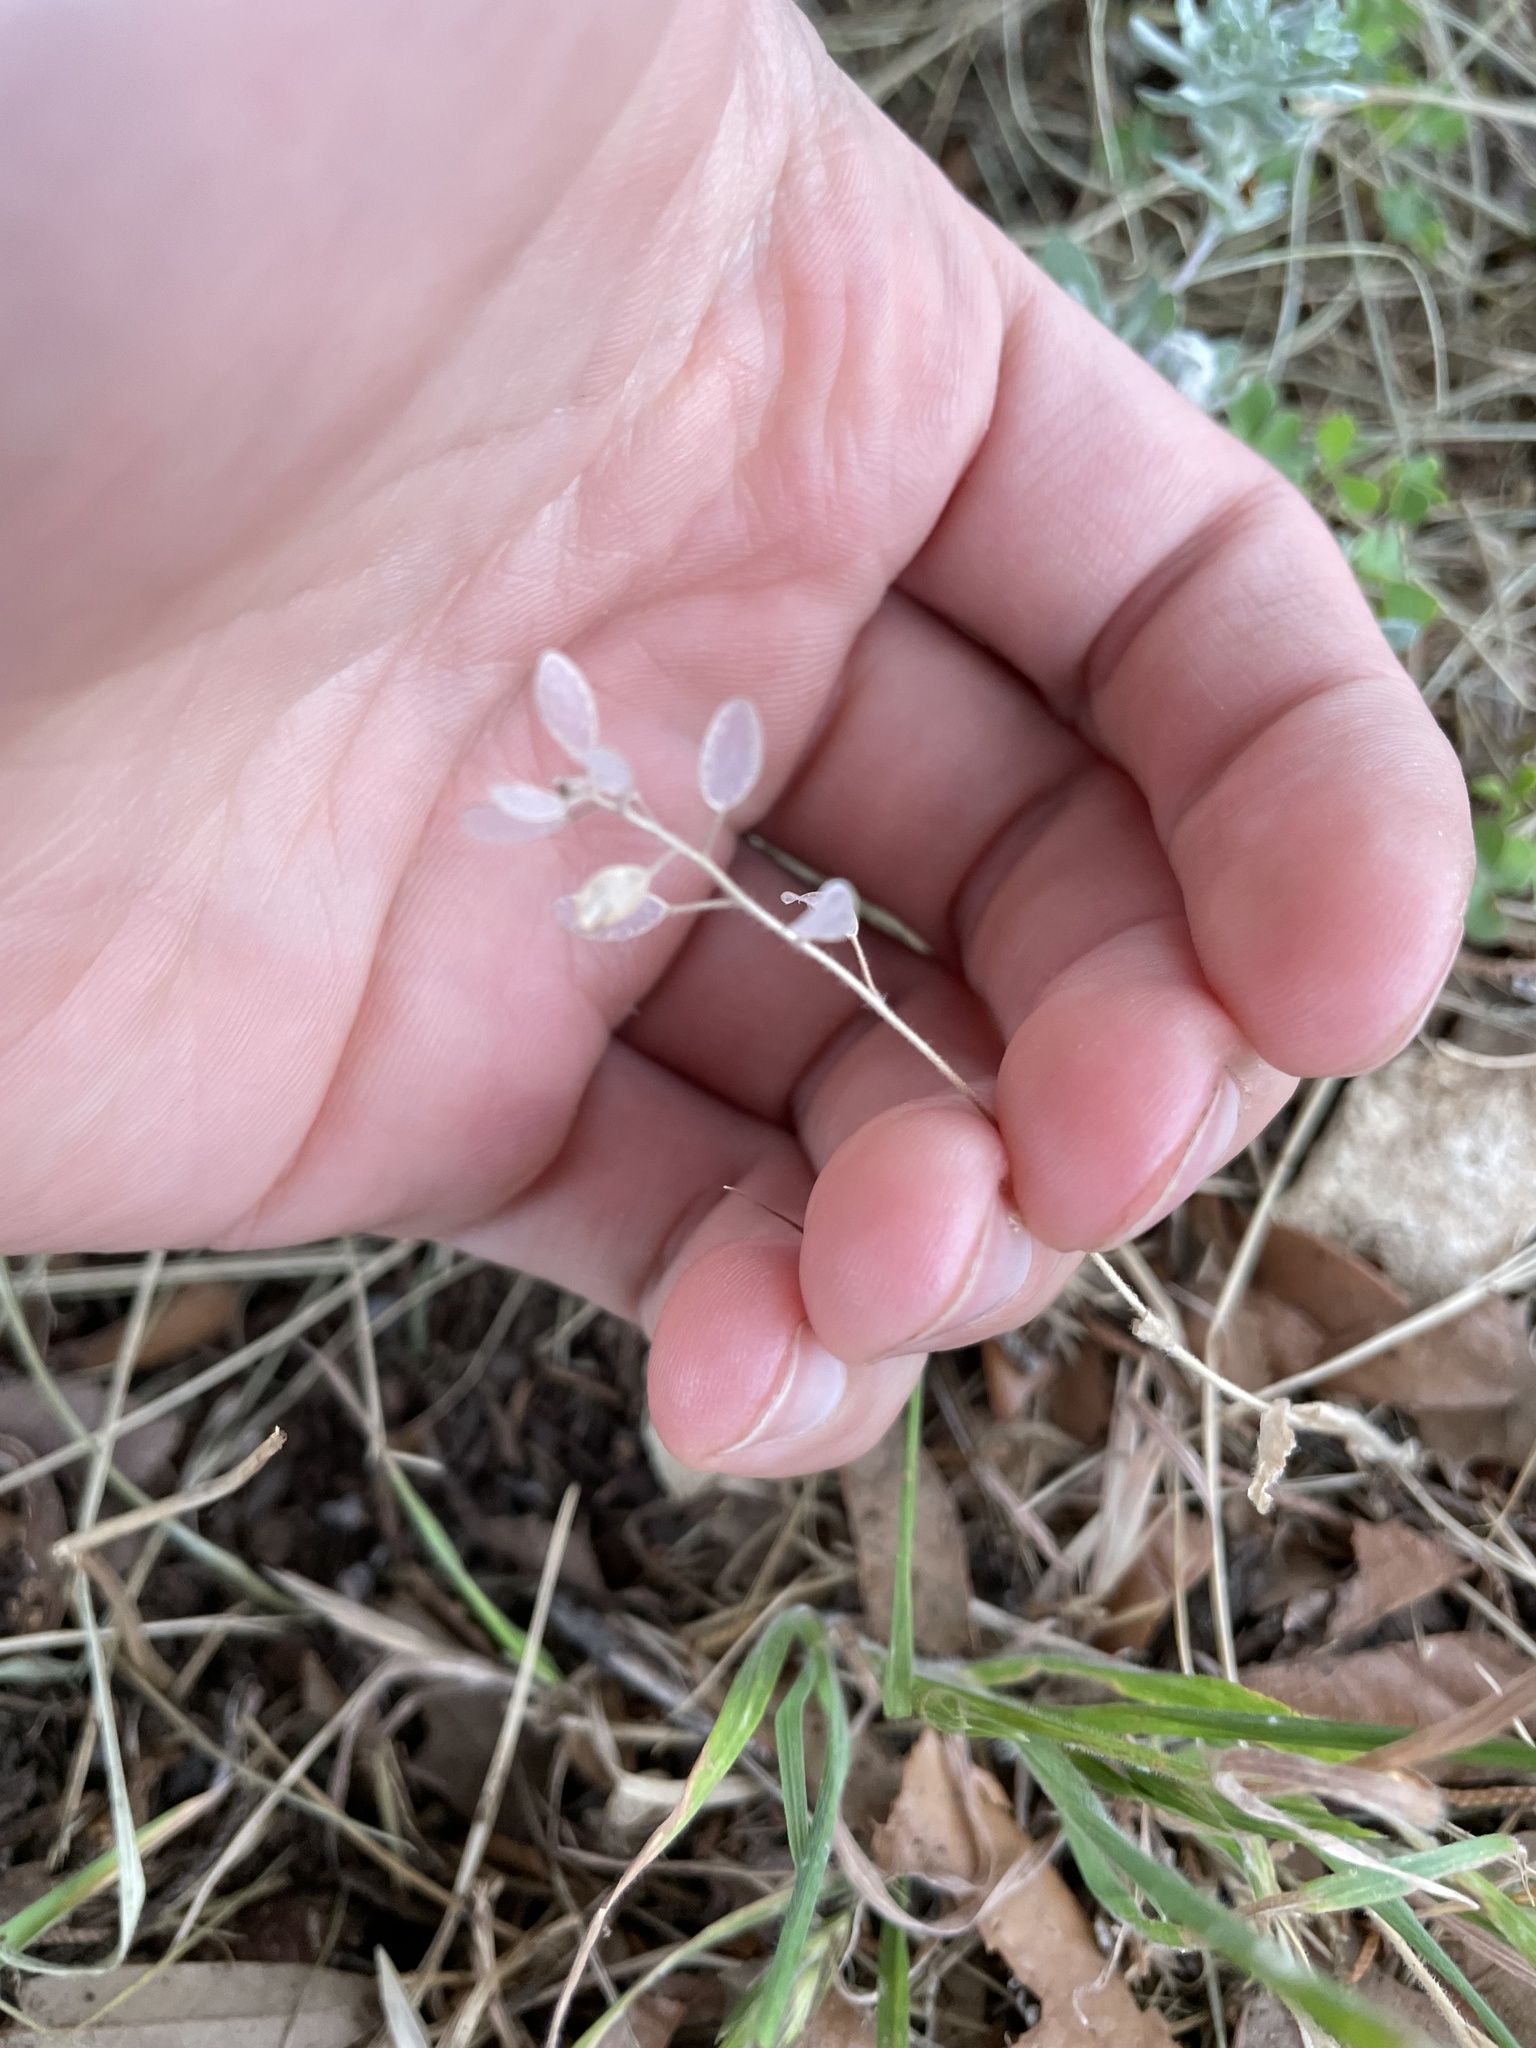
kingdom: Plantae
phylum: Tracheophyta
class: Magnoliopsida
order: Brassicales
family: Brassicaceae
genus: Tomostima
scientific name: Tomostima platycarpa
